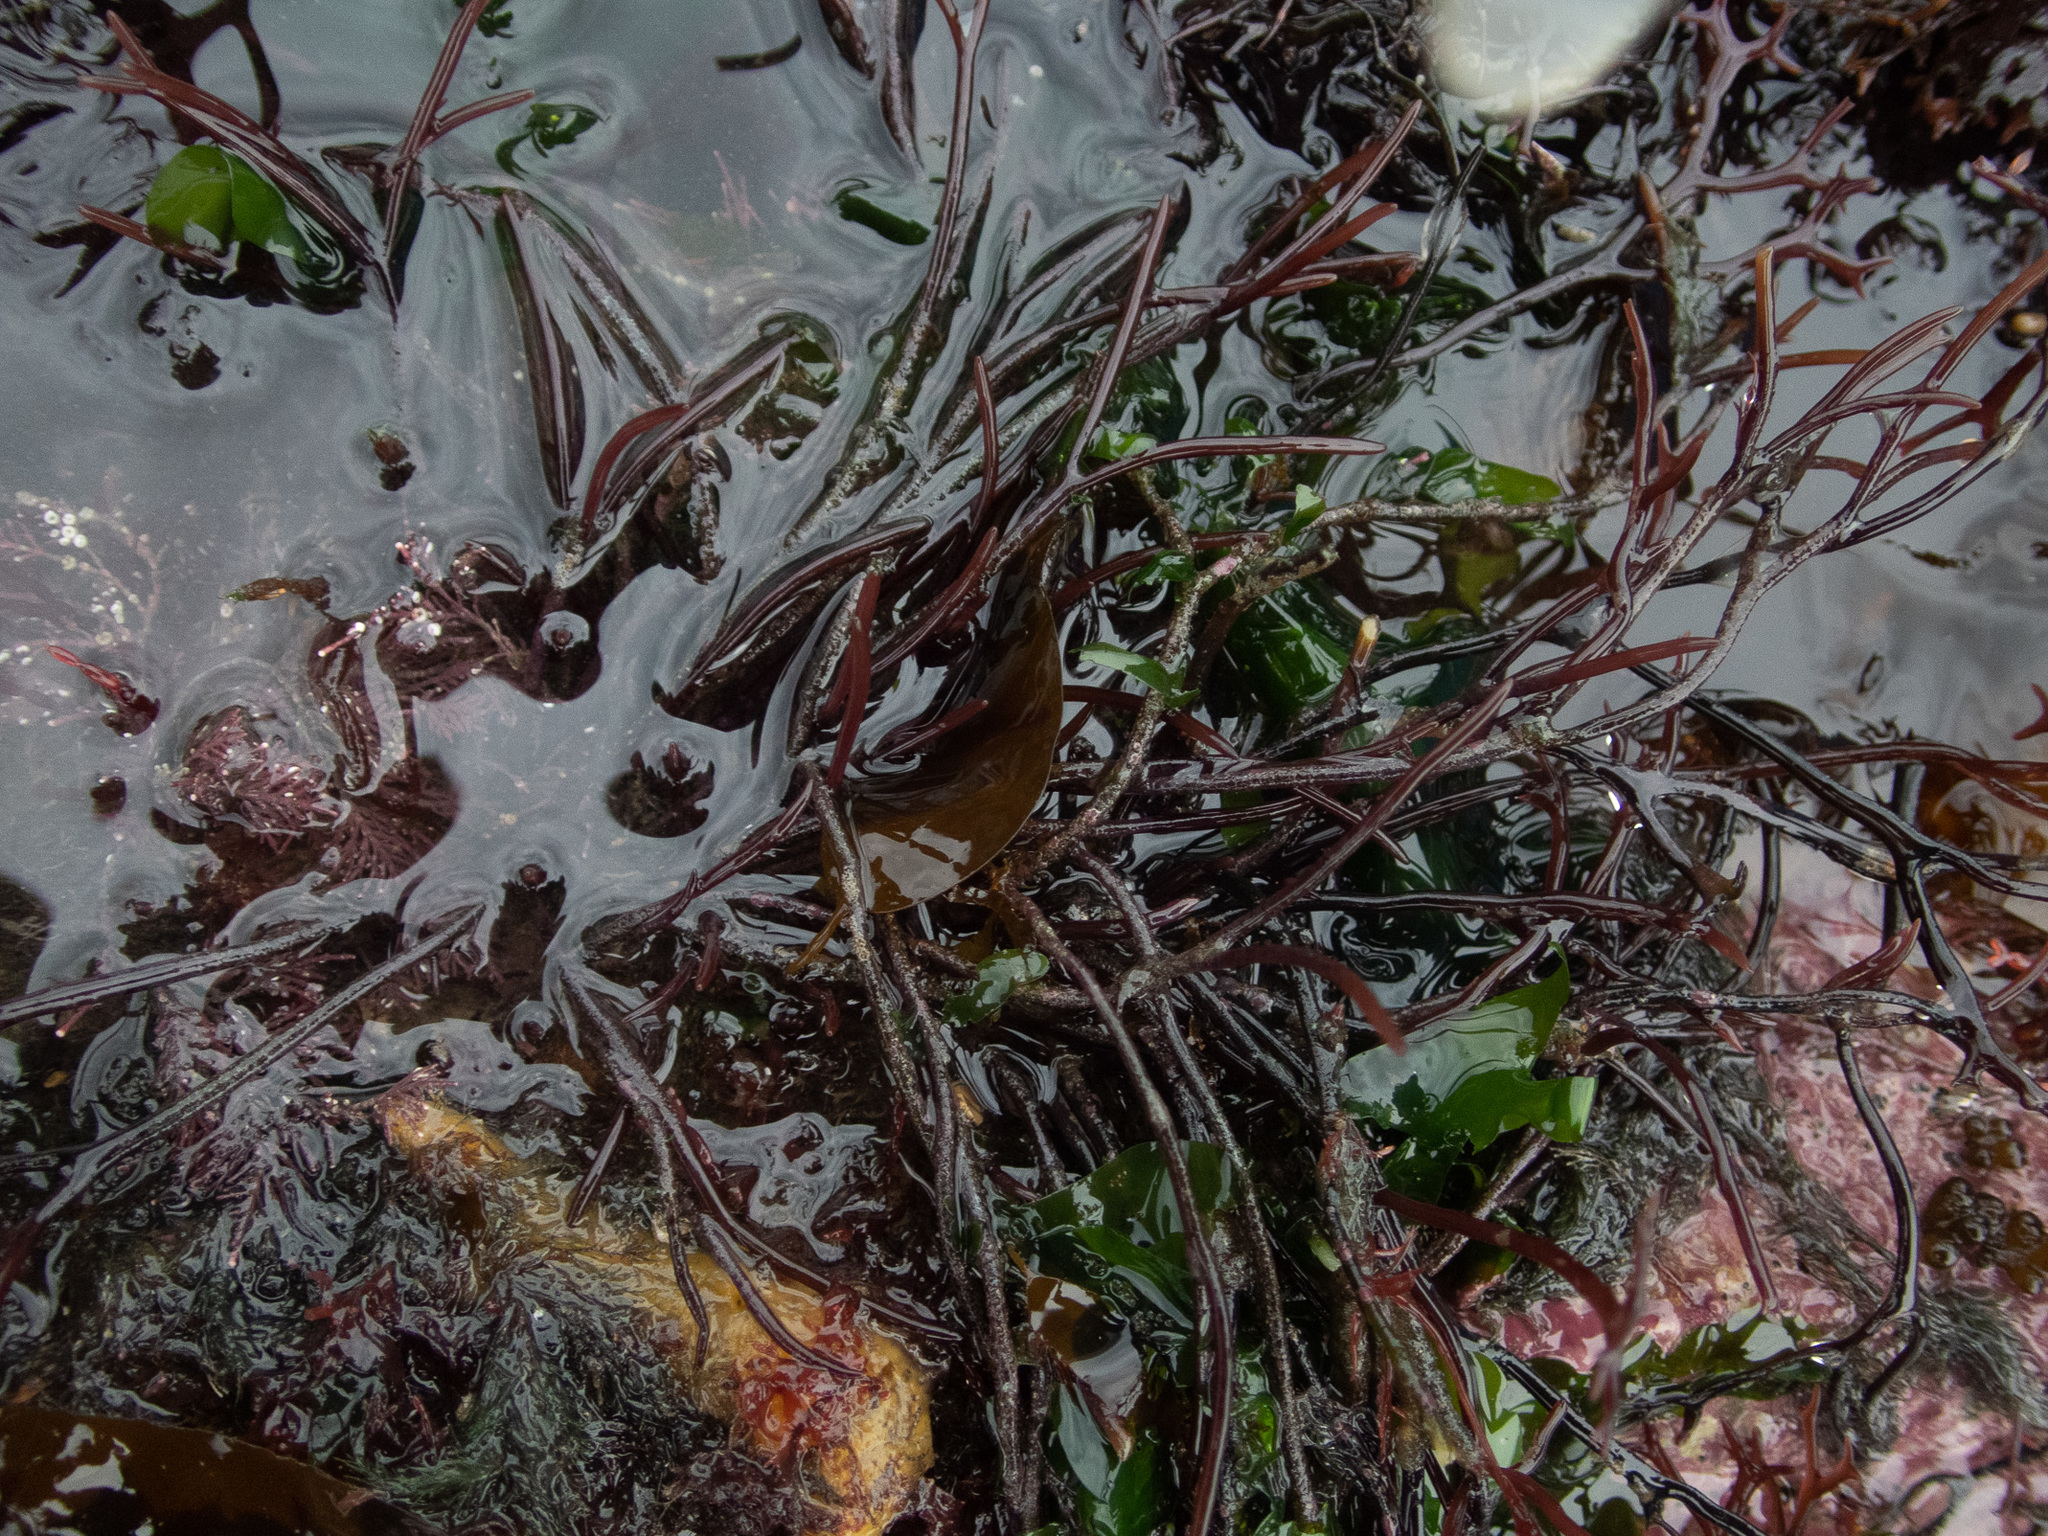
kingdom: Plantae
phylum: Rhodophyta
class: Florideophyceae
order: Gigartinales
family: Furcellariaceae
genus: Furcellaria
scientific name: Furcellaria lumbricalis
